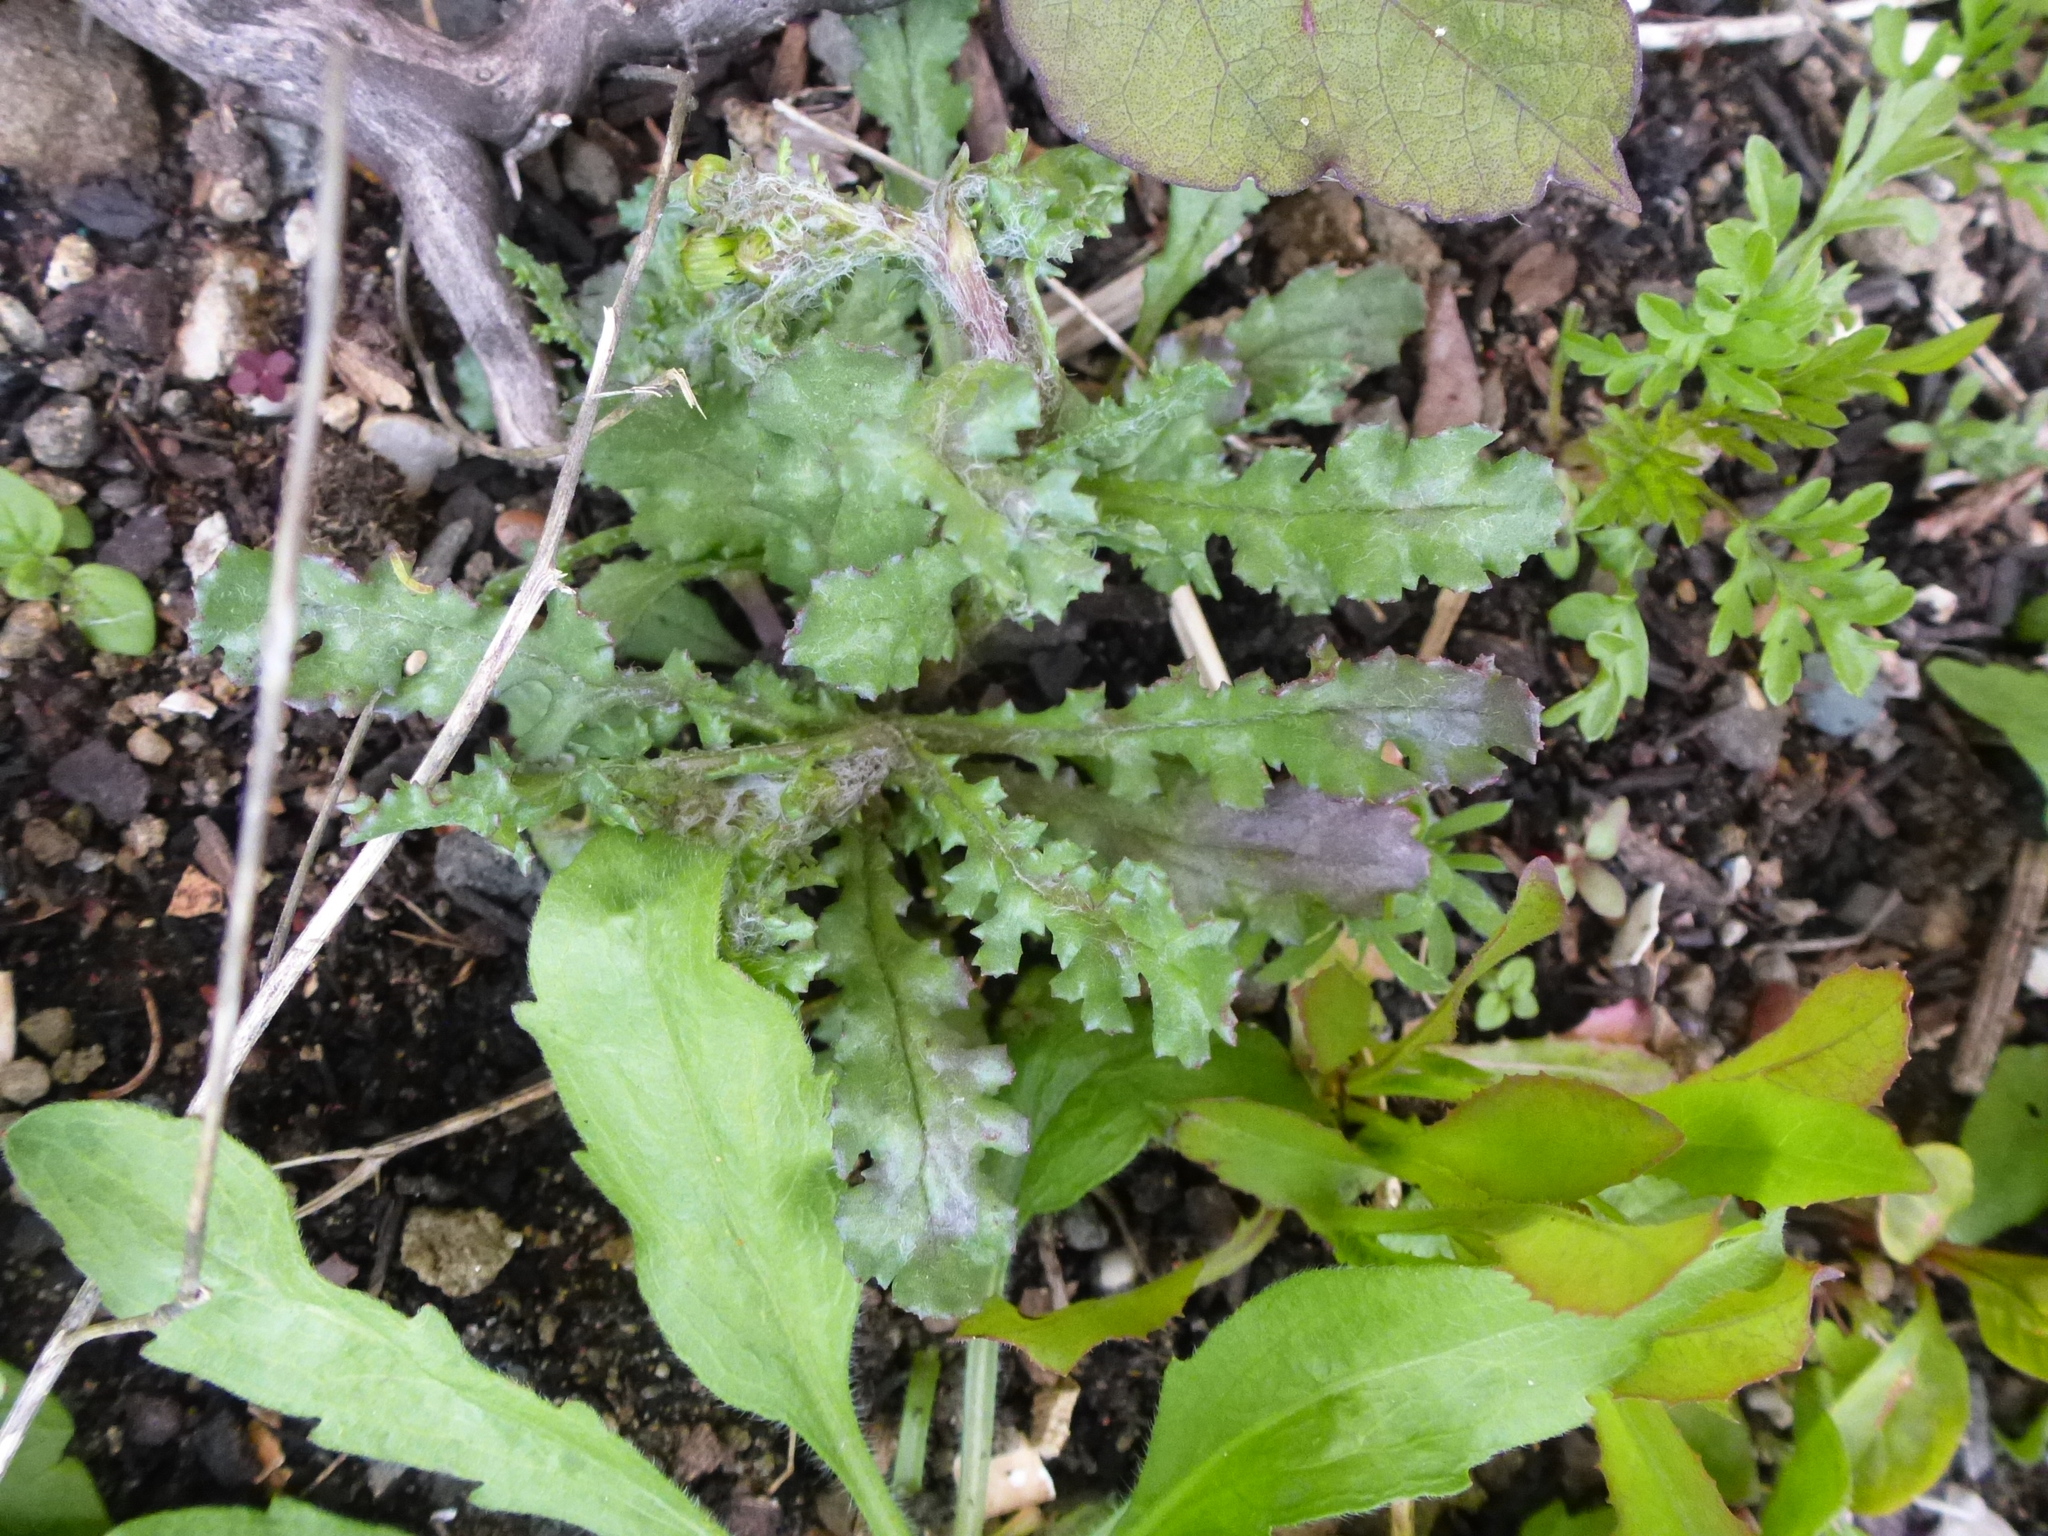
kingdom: Plantae
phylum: Tracheophyta
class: Magnoliopsida
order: Asterales
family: Asteraceae
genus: Senecio
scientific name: Senecio vulgaris
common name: Old-man-in-the-spring
